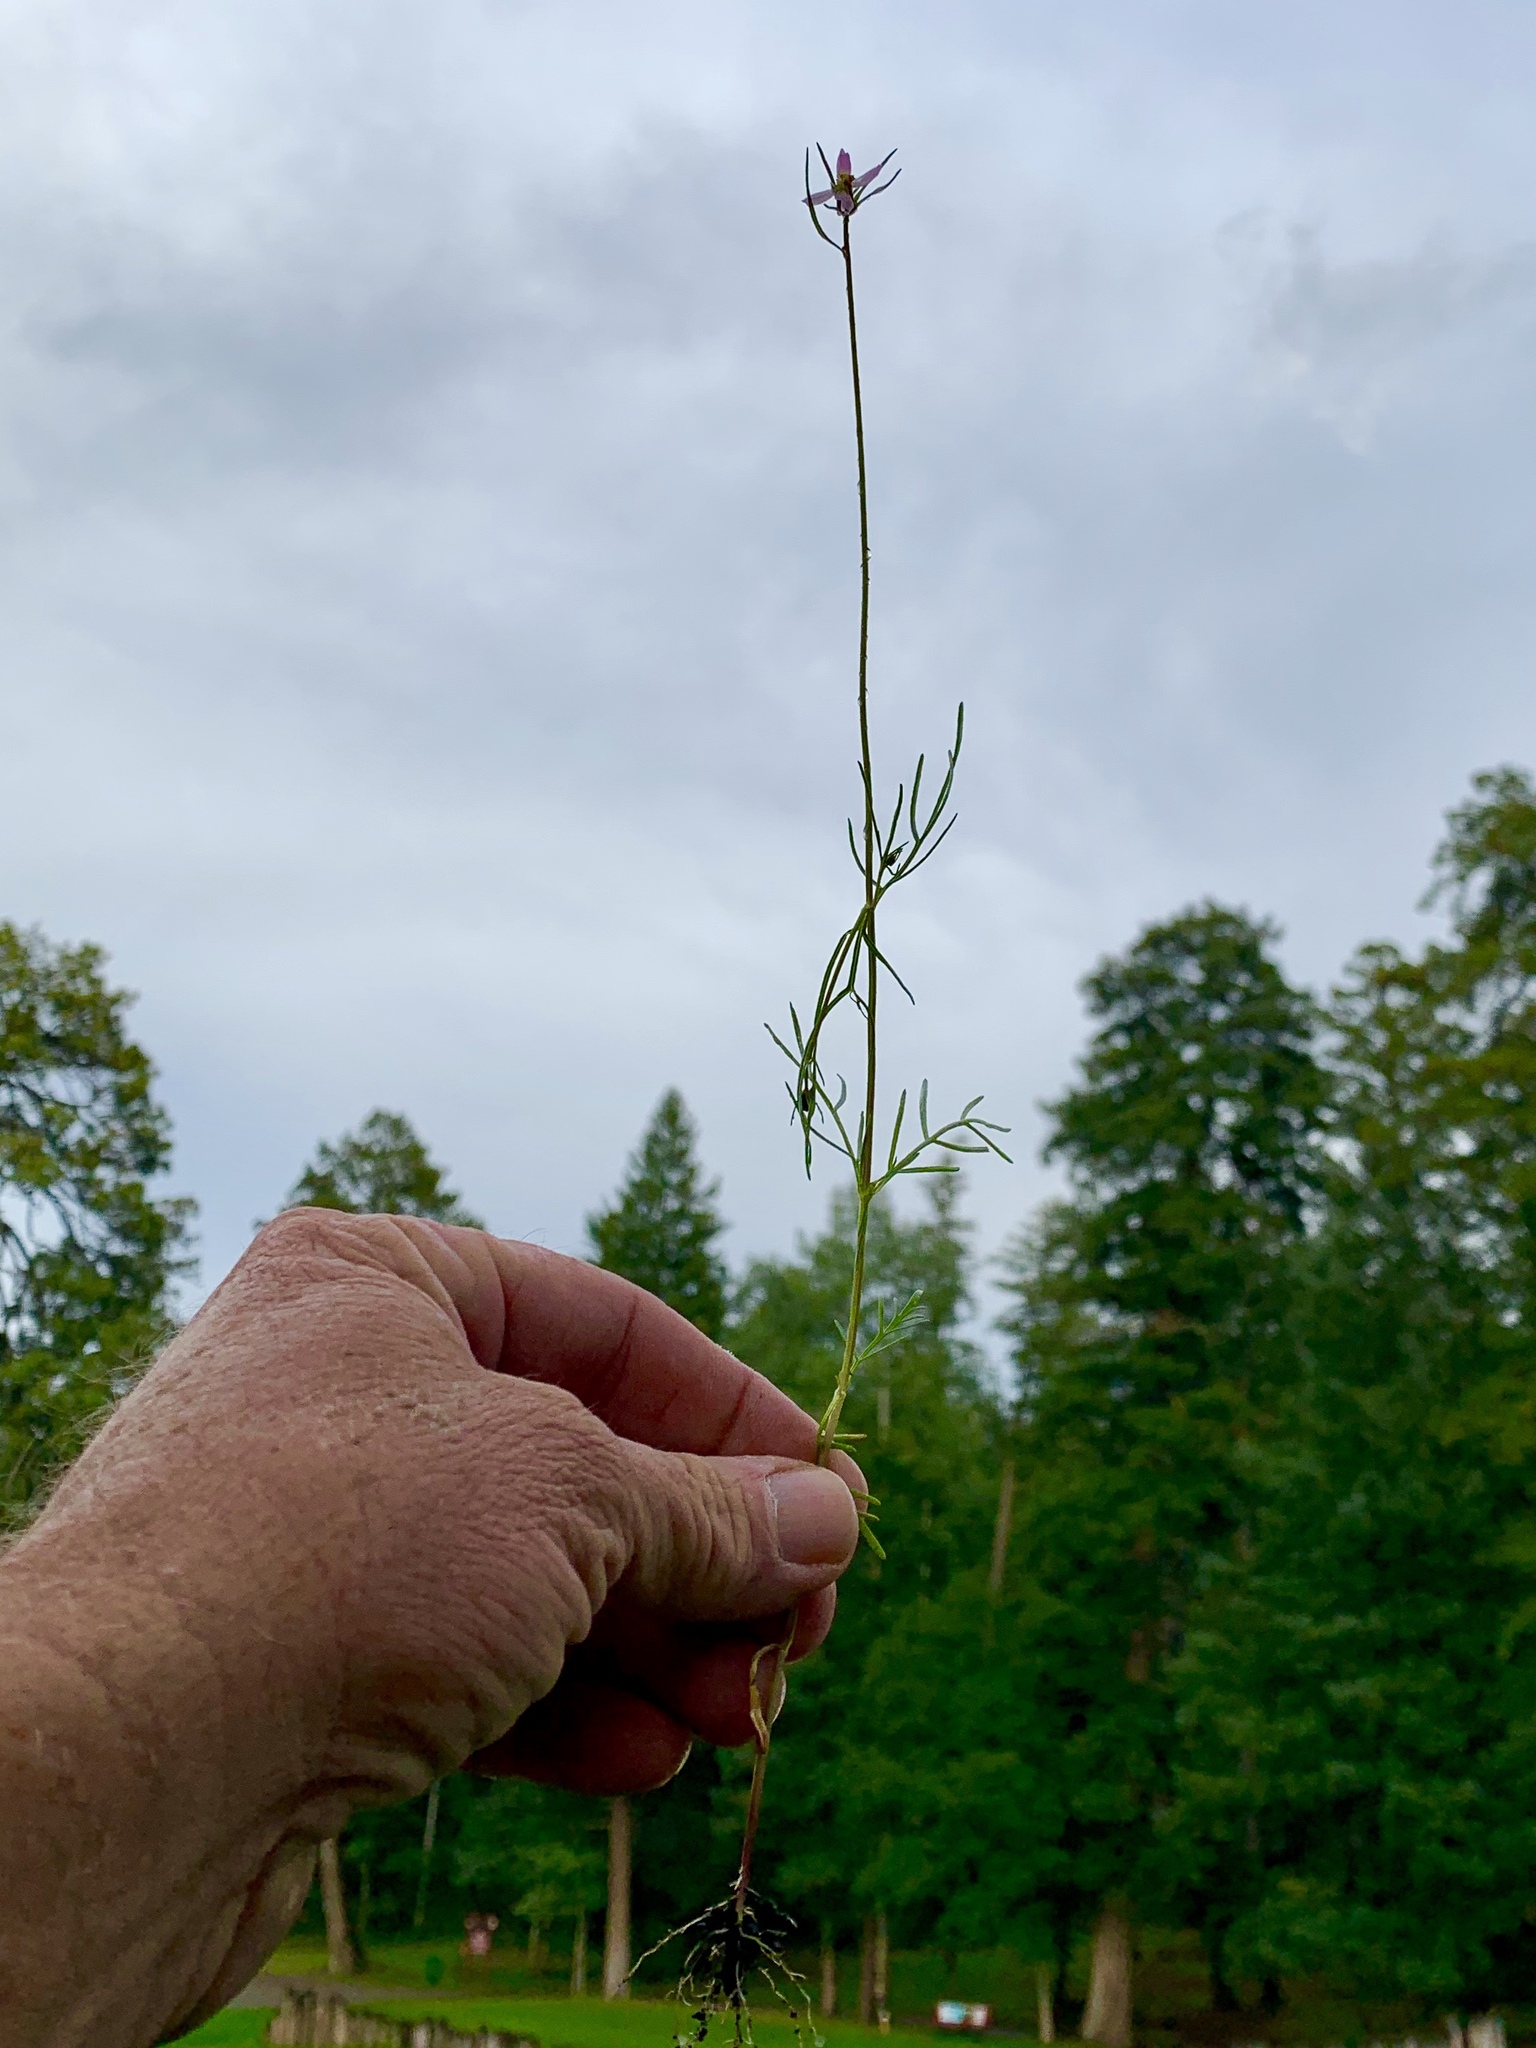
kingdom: Plantae
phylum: Tracheophyta
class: Magnoliopsida
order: Asterales
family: Asteraceae
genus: Cosmos
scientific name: Cosmos parviflorus
